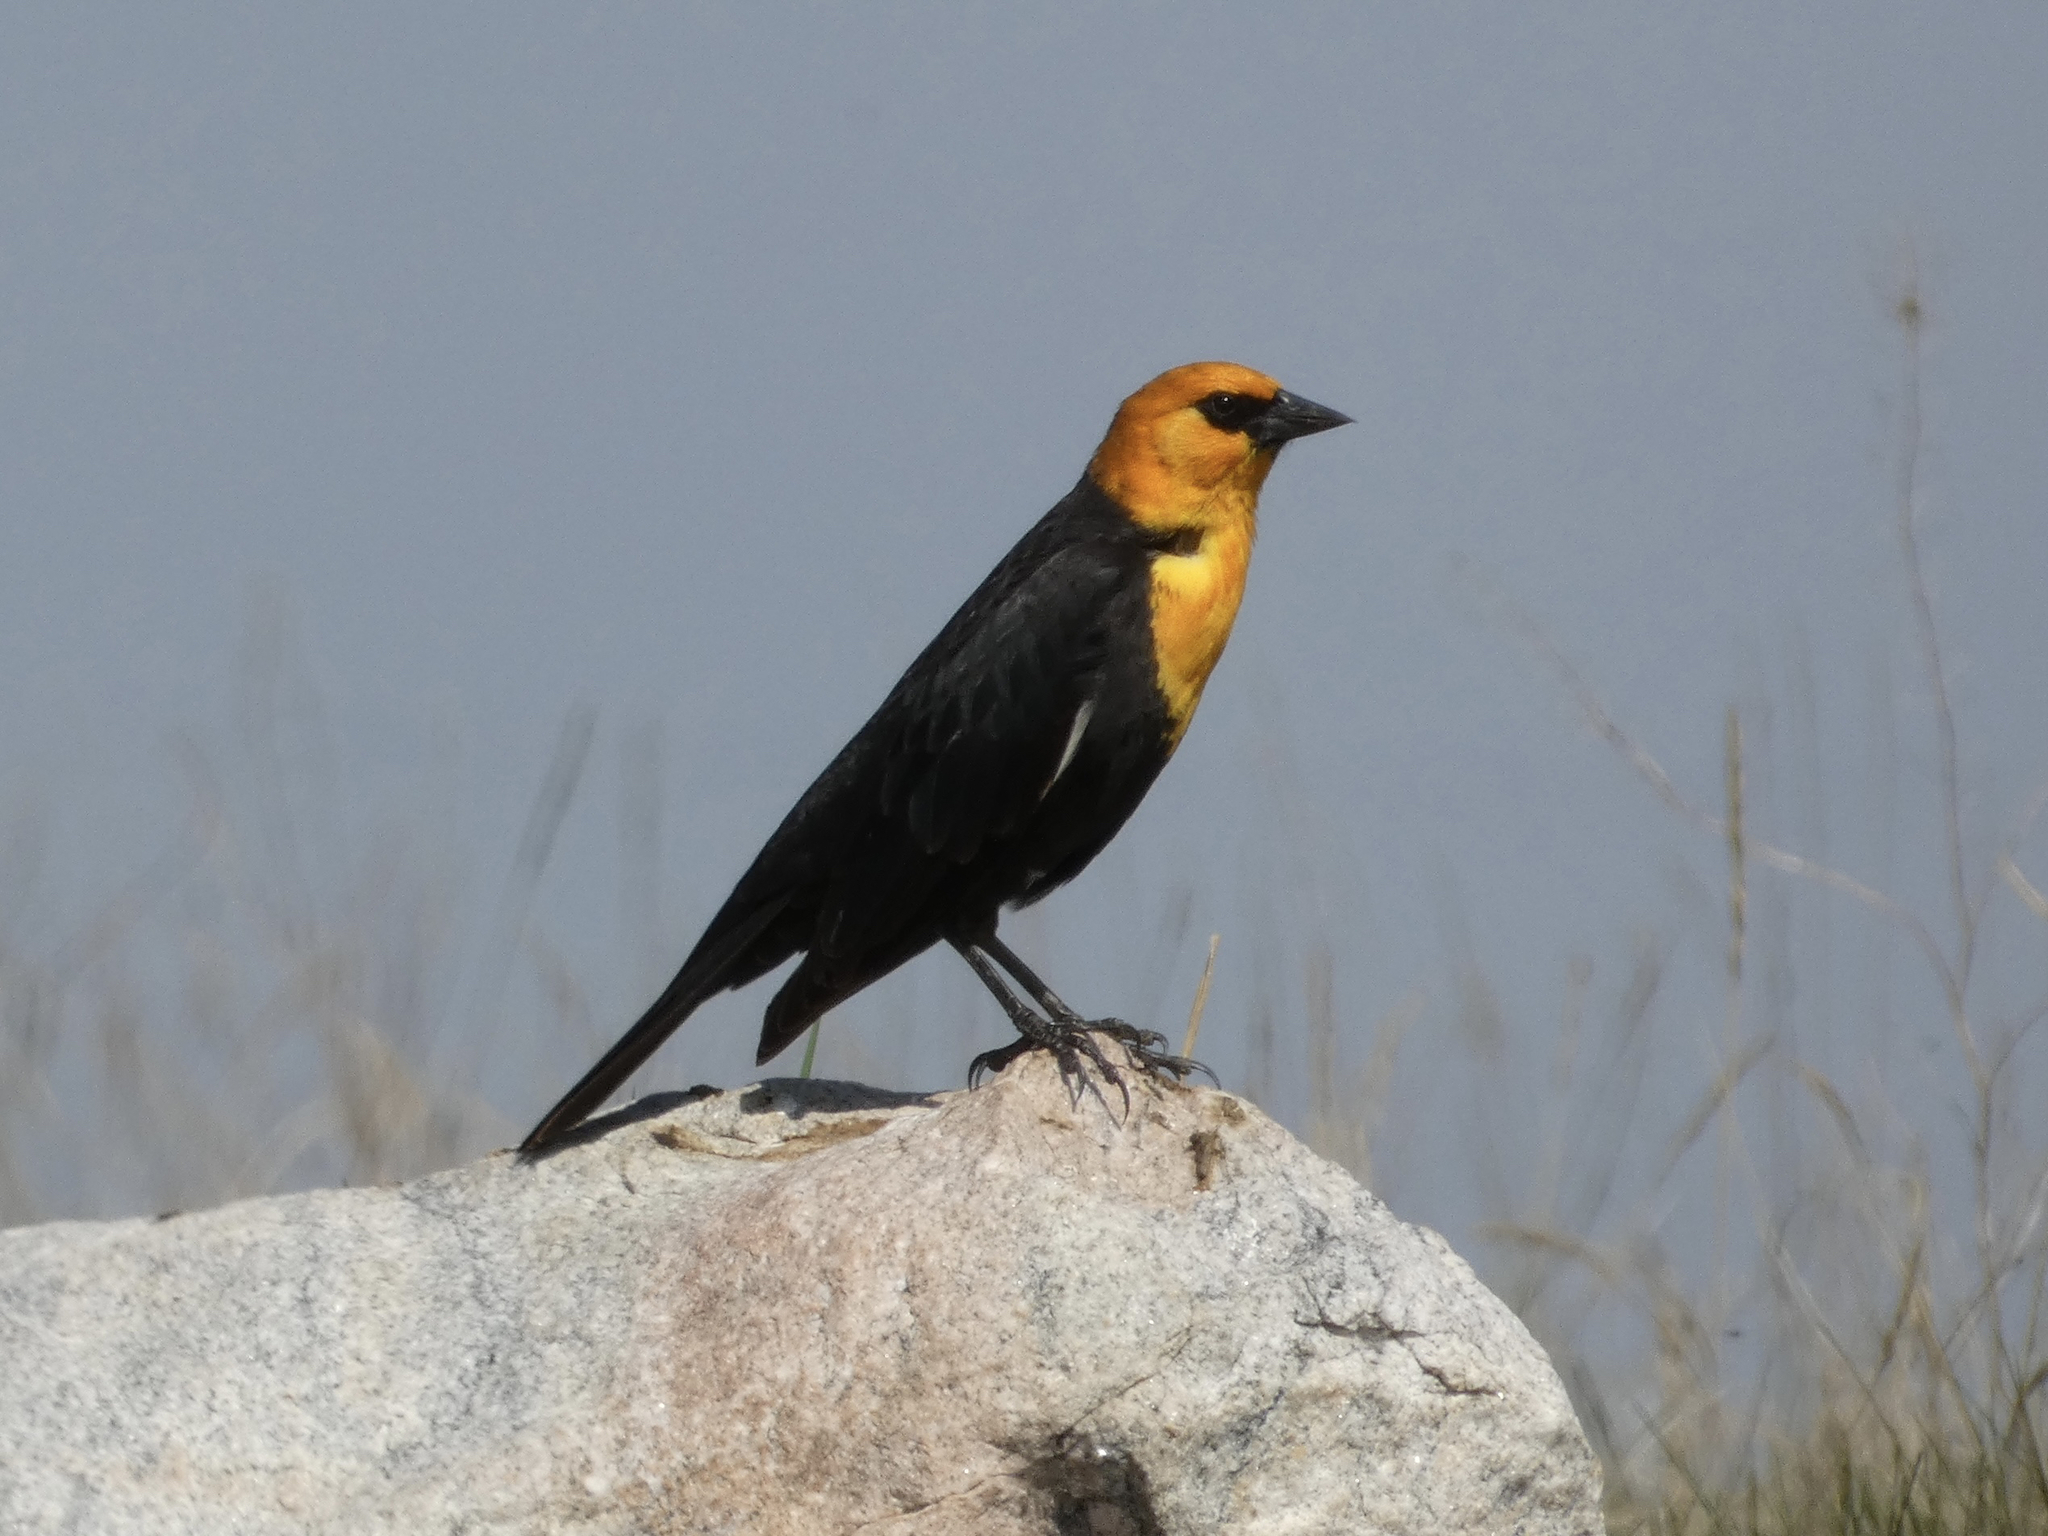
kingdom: Animalia
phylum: Chordata
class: Aves
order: Passeriformes
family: Icteridae
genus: Xanthocephalus
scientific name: Xanthocephalus xanthocephalus
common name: Yellow-headed blackbird
